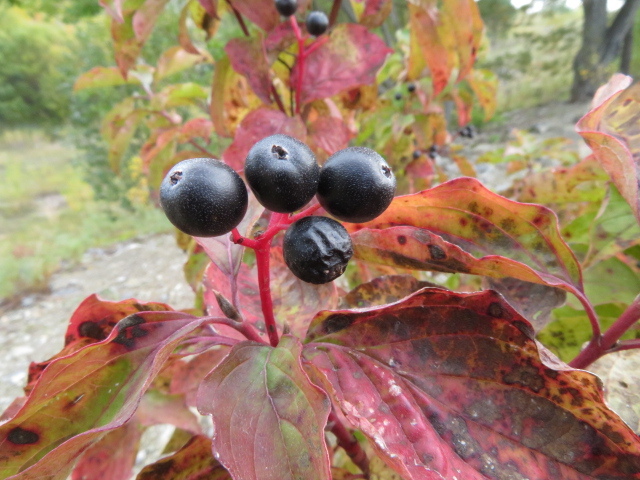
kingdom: Plantae
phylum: Tracheophyta
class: Magnoliopsida
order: Cornales
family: Cornaceae
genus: Cornus
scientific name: Cornus sanguinea
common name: Dogwood
